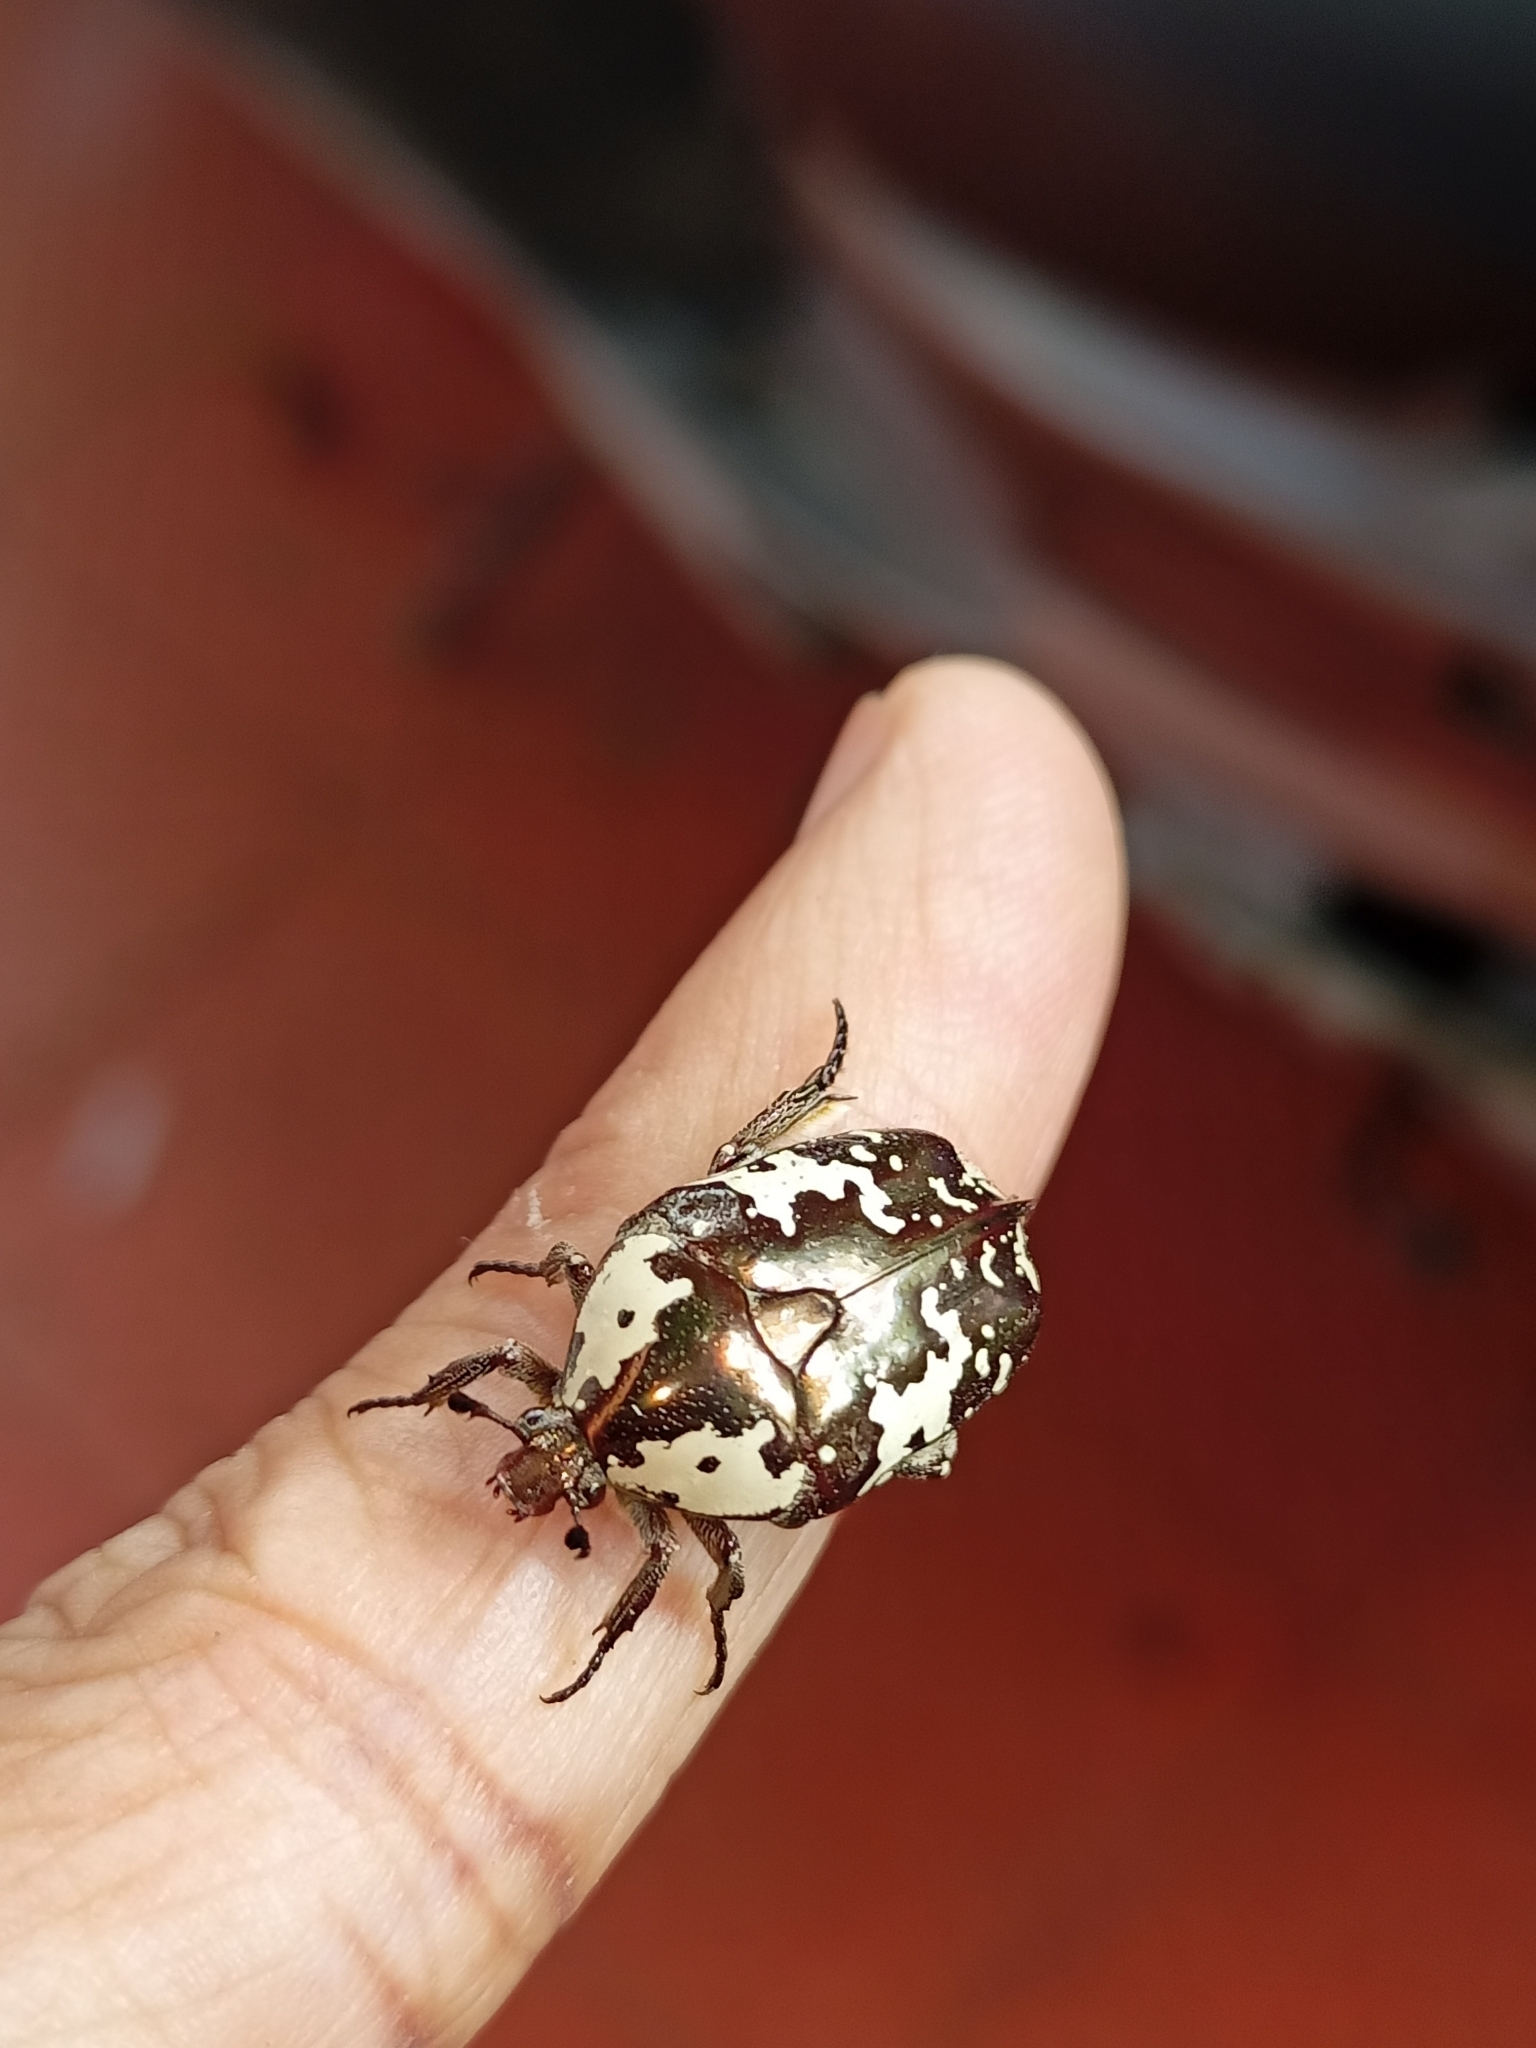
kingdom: Animalia
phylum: Arthropoda
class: Insecta
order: Coleoptera
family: Scarabaeidae
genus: Protaetia
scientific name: Protaetia aurichalcea
